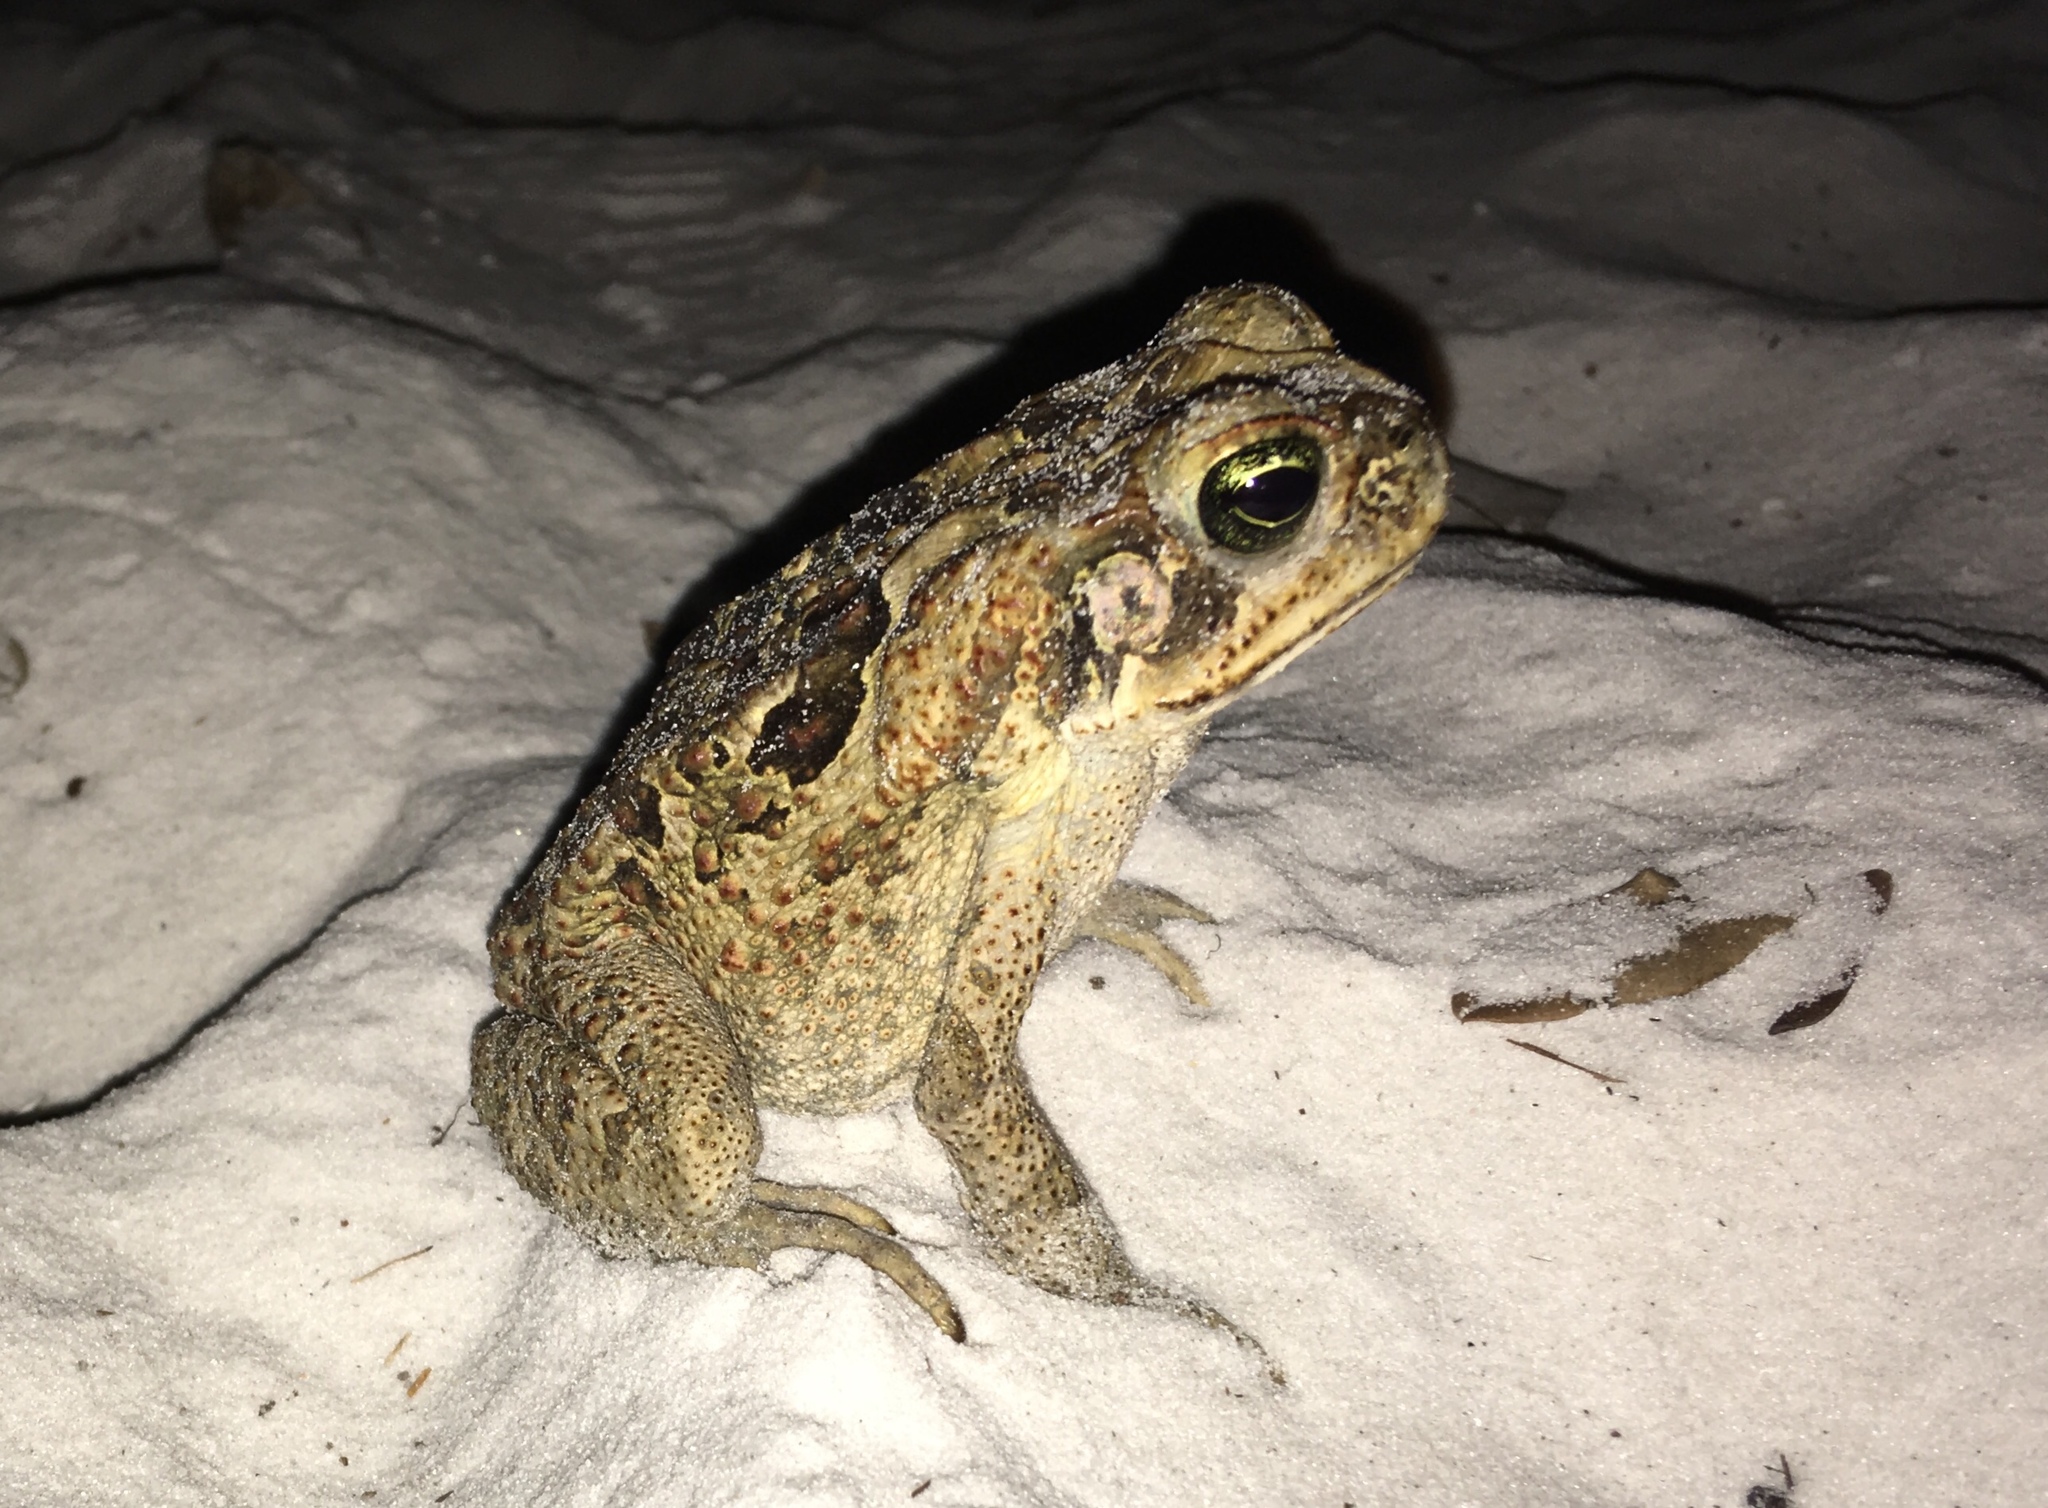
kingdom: Animalia
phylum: Chordata
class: Amphibia
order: Anura
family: Bufonidae
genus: Rhinella
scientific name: Rhinella marina
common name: Cane toad
